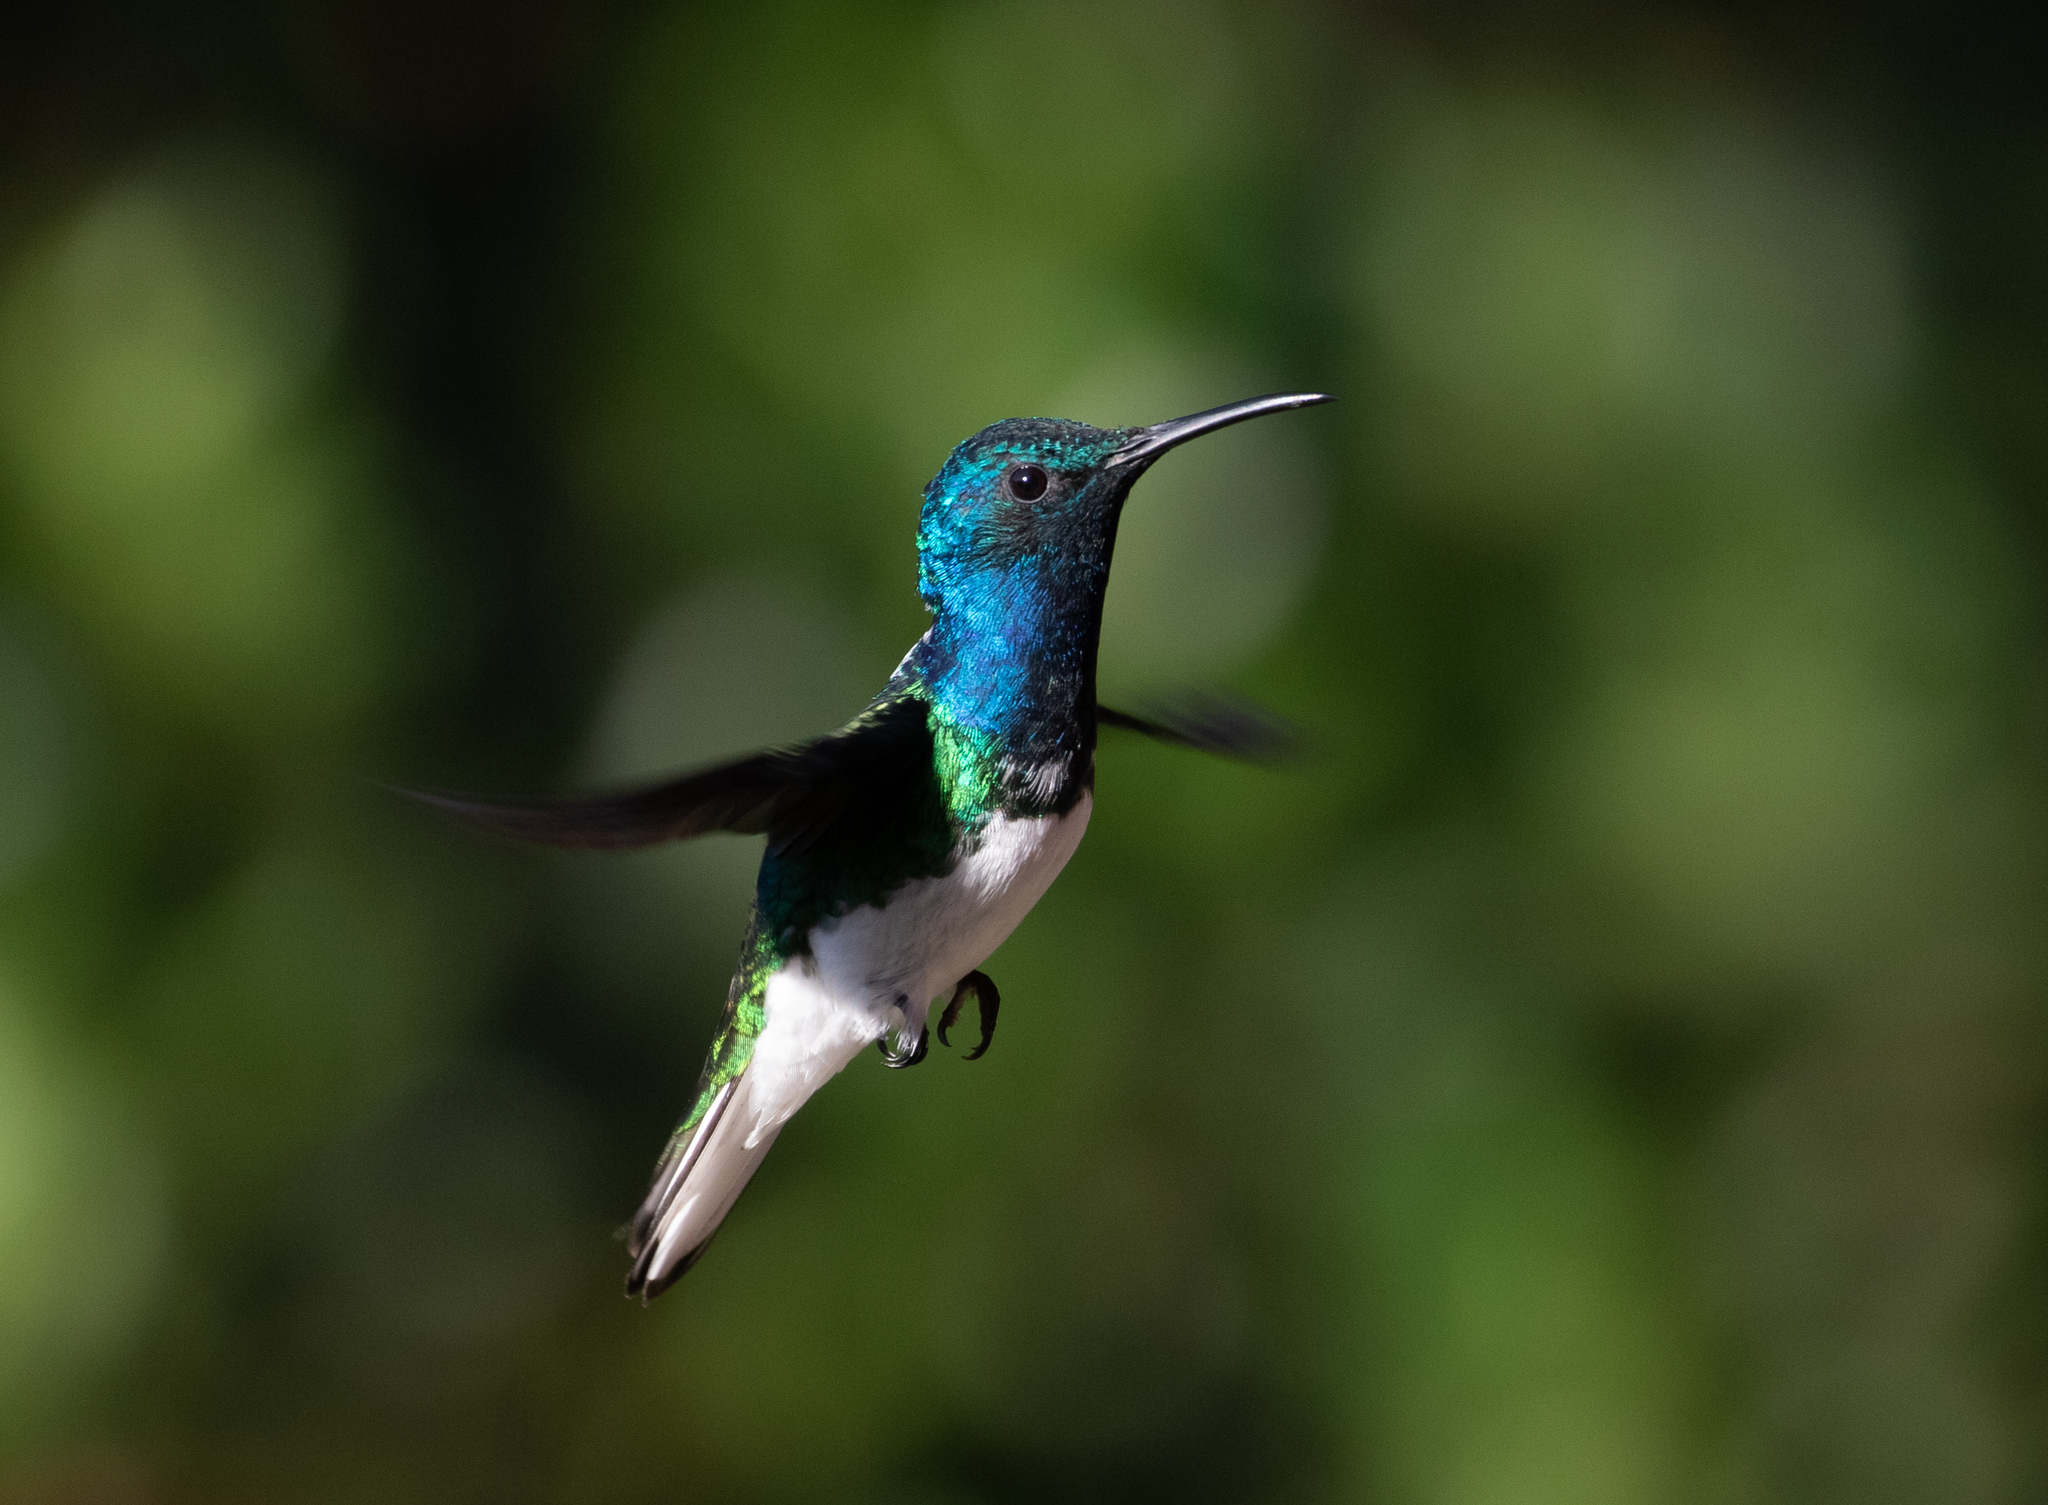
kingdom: Animalia
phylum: Chordata
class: Aves
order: Apodiformes
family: Trochilidae
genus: Florisuga
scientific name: Florisuga mellivora
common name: White-necked jacobin
